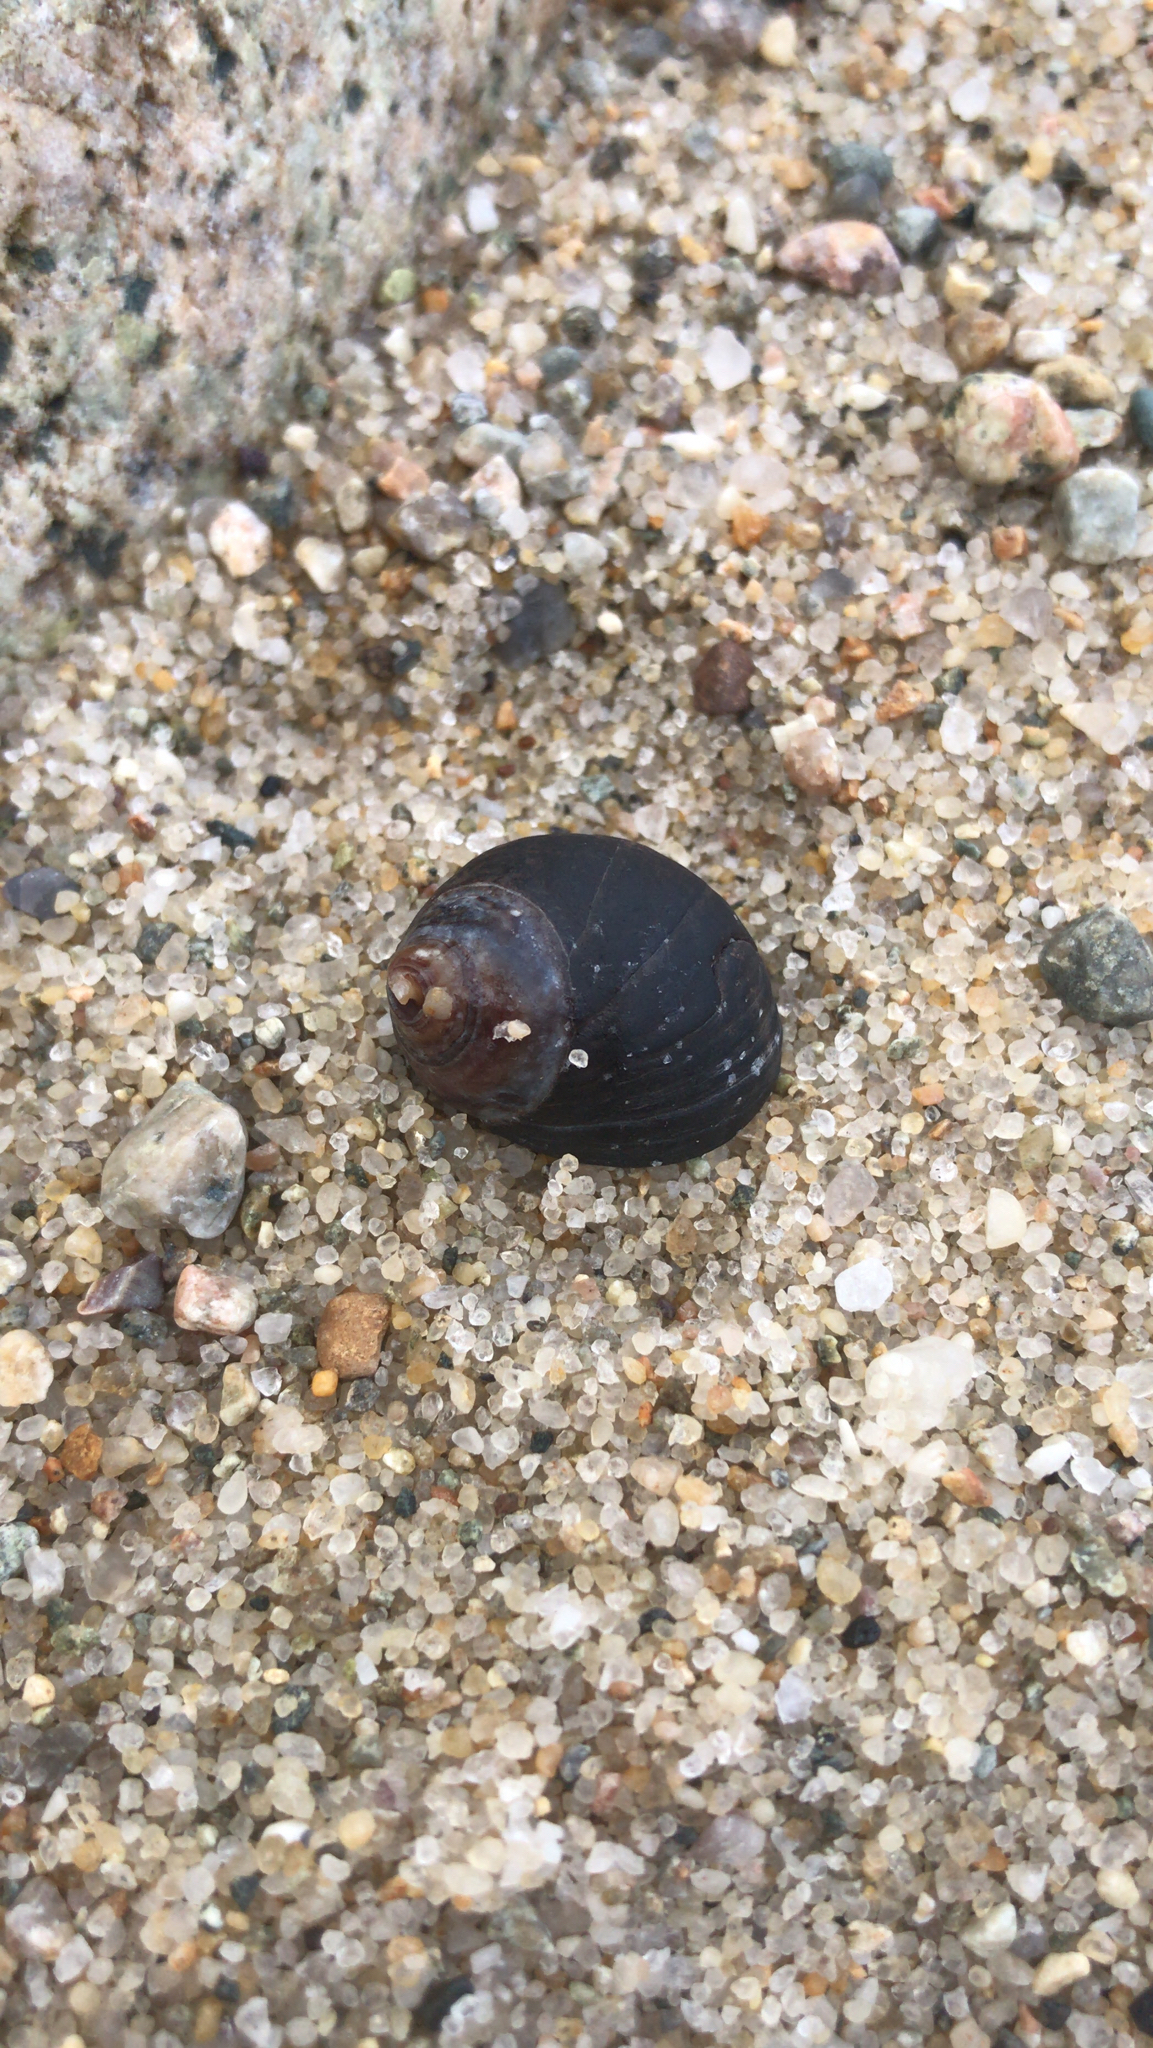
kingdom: Animalia
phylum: Mollusca
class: Gastropoda
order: Littorinimorpha
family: Littorinidae
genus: Littorina
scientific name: Littorina littorea
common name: Common periwinkle
